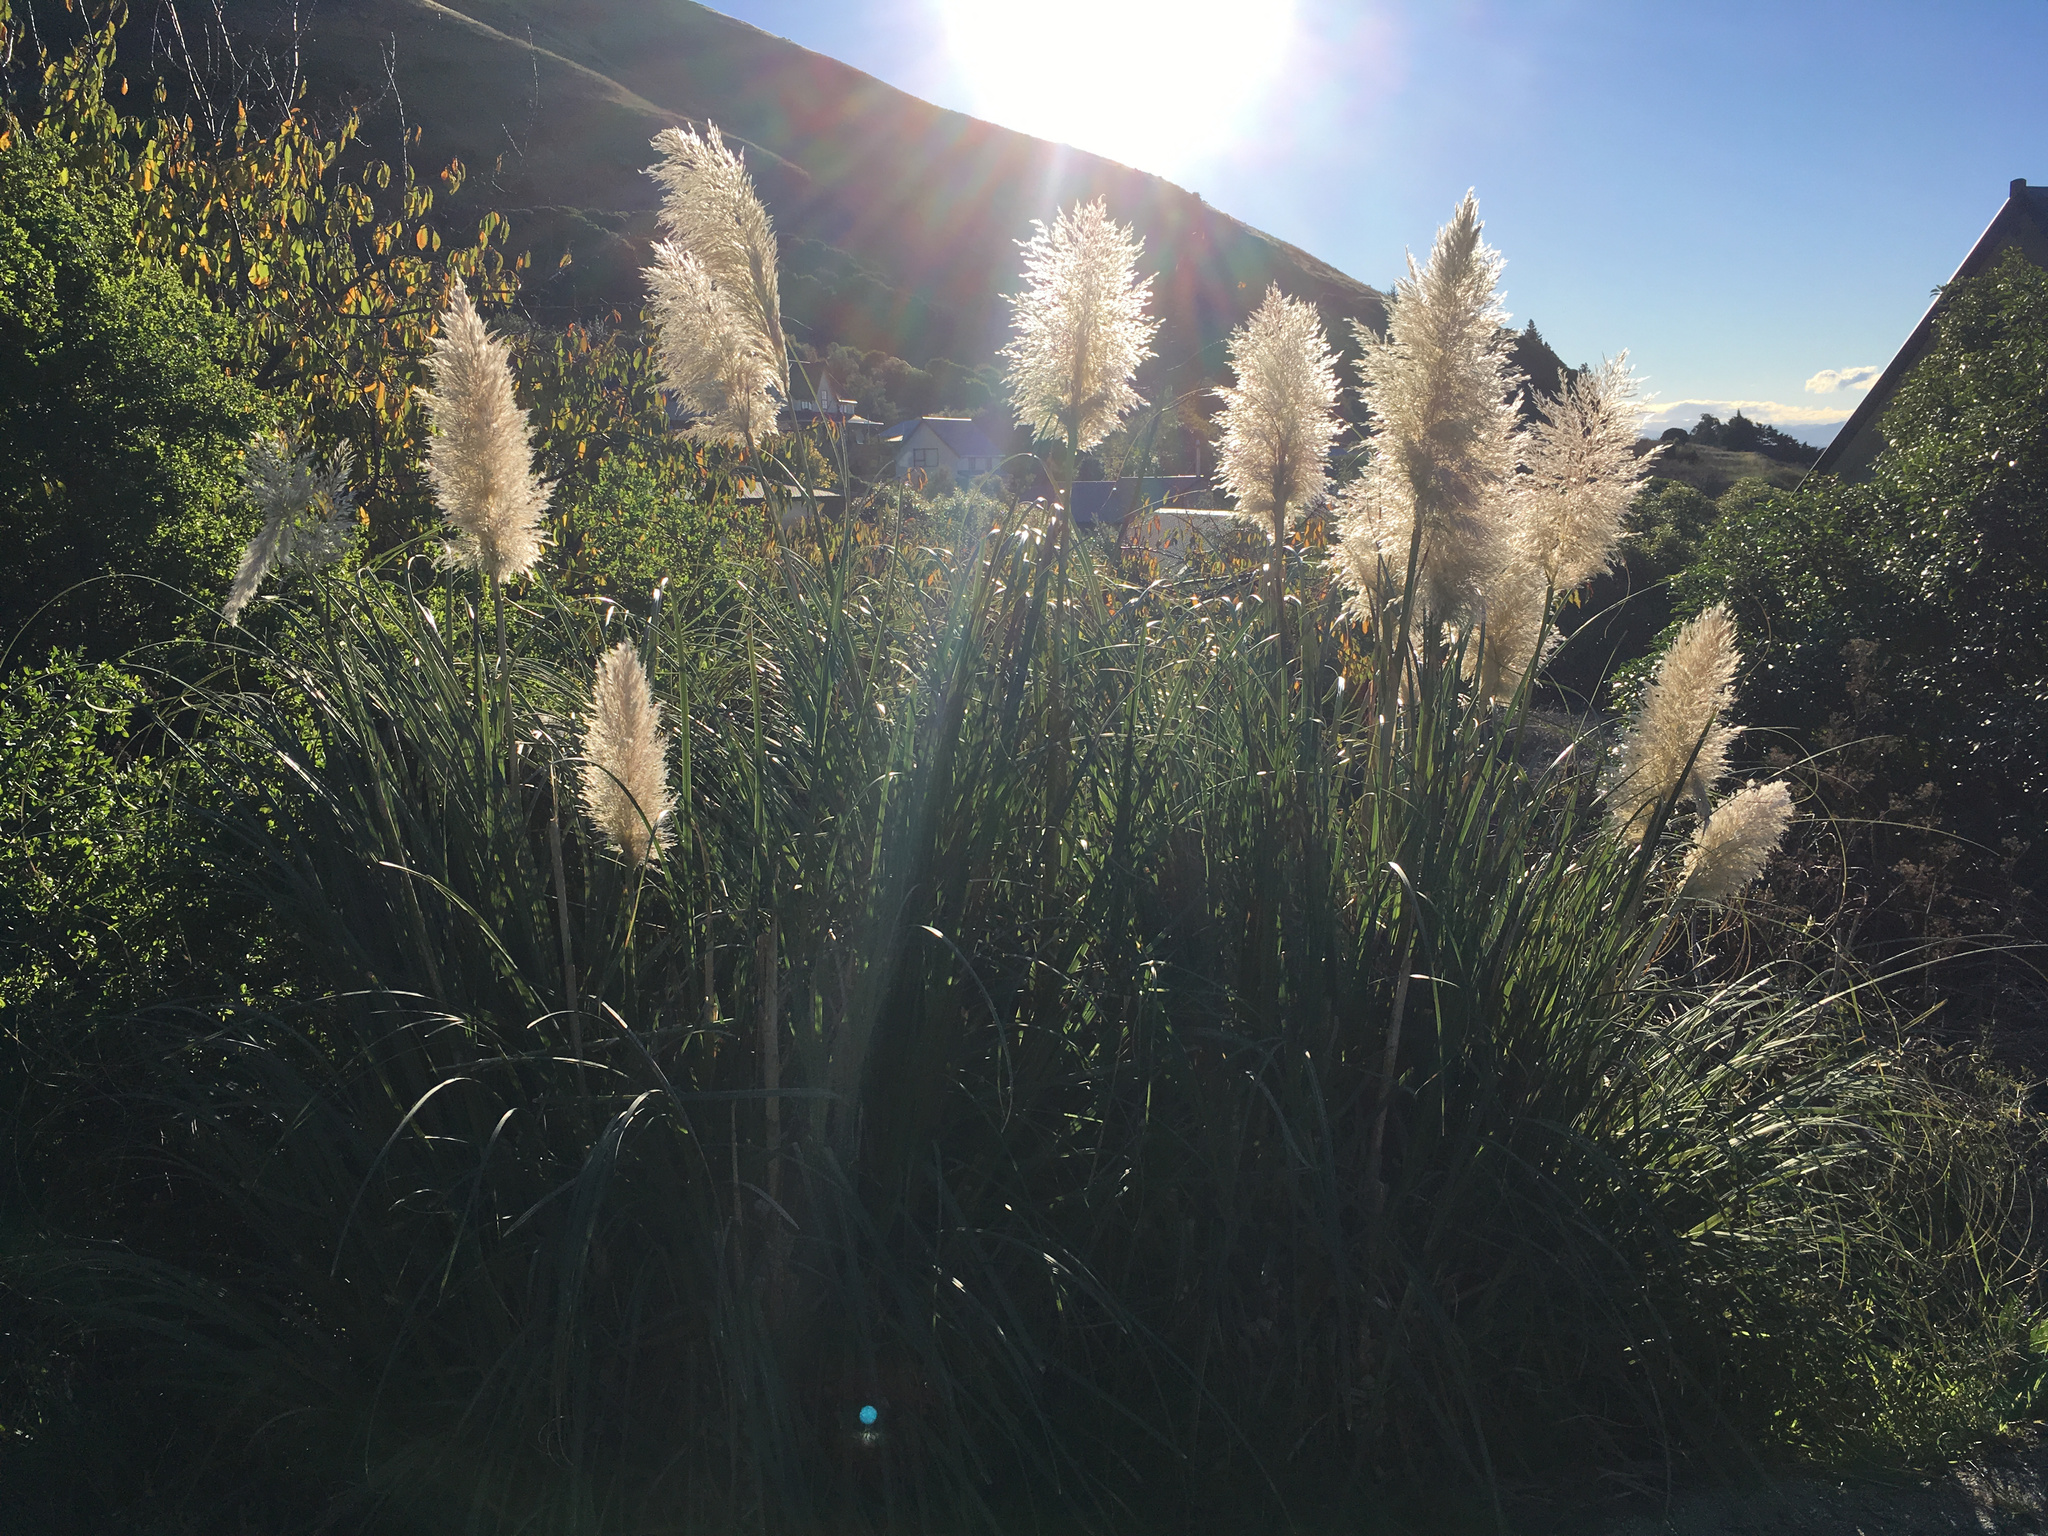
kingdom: Plantae
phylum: Tracheophyta
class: Liliopsida
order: Poales
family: Poaceae
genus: Cortaderia
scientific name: Cortaderia selloana
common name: Uruguayan pampas grass
